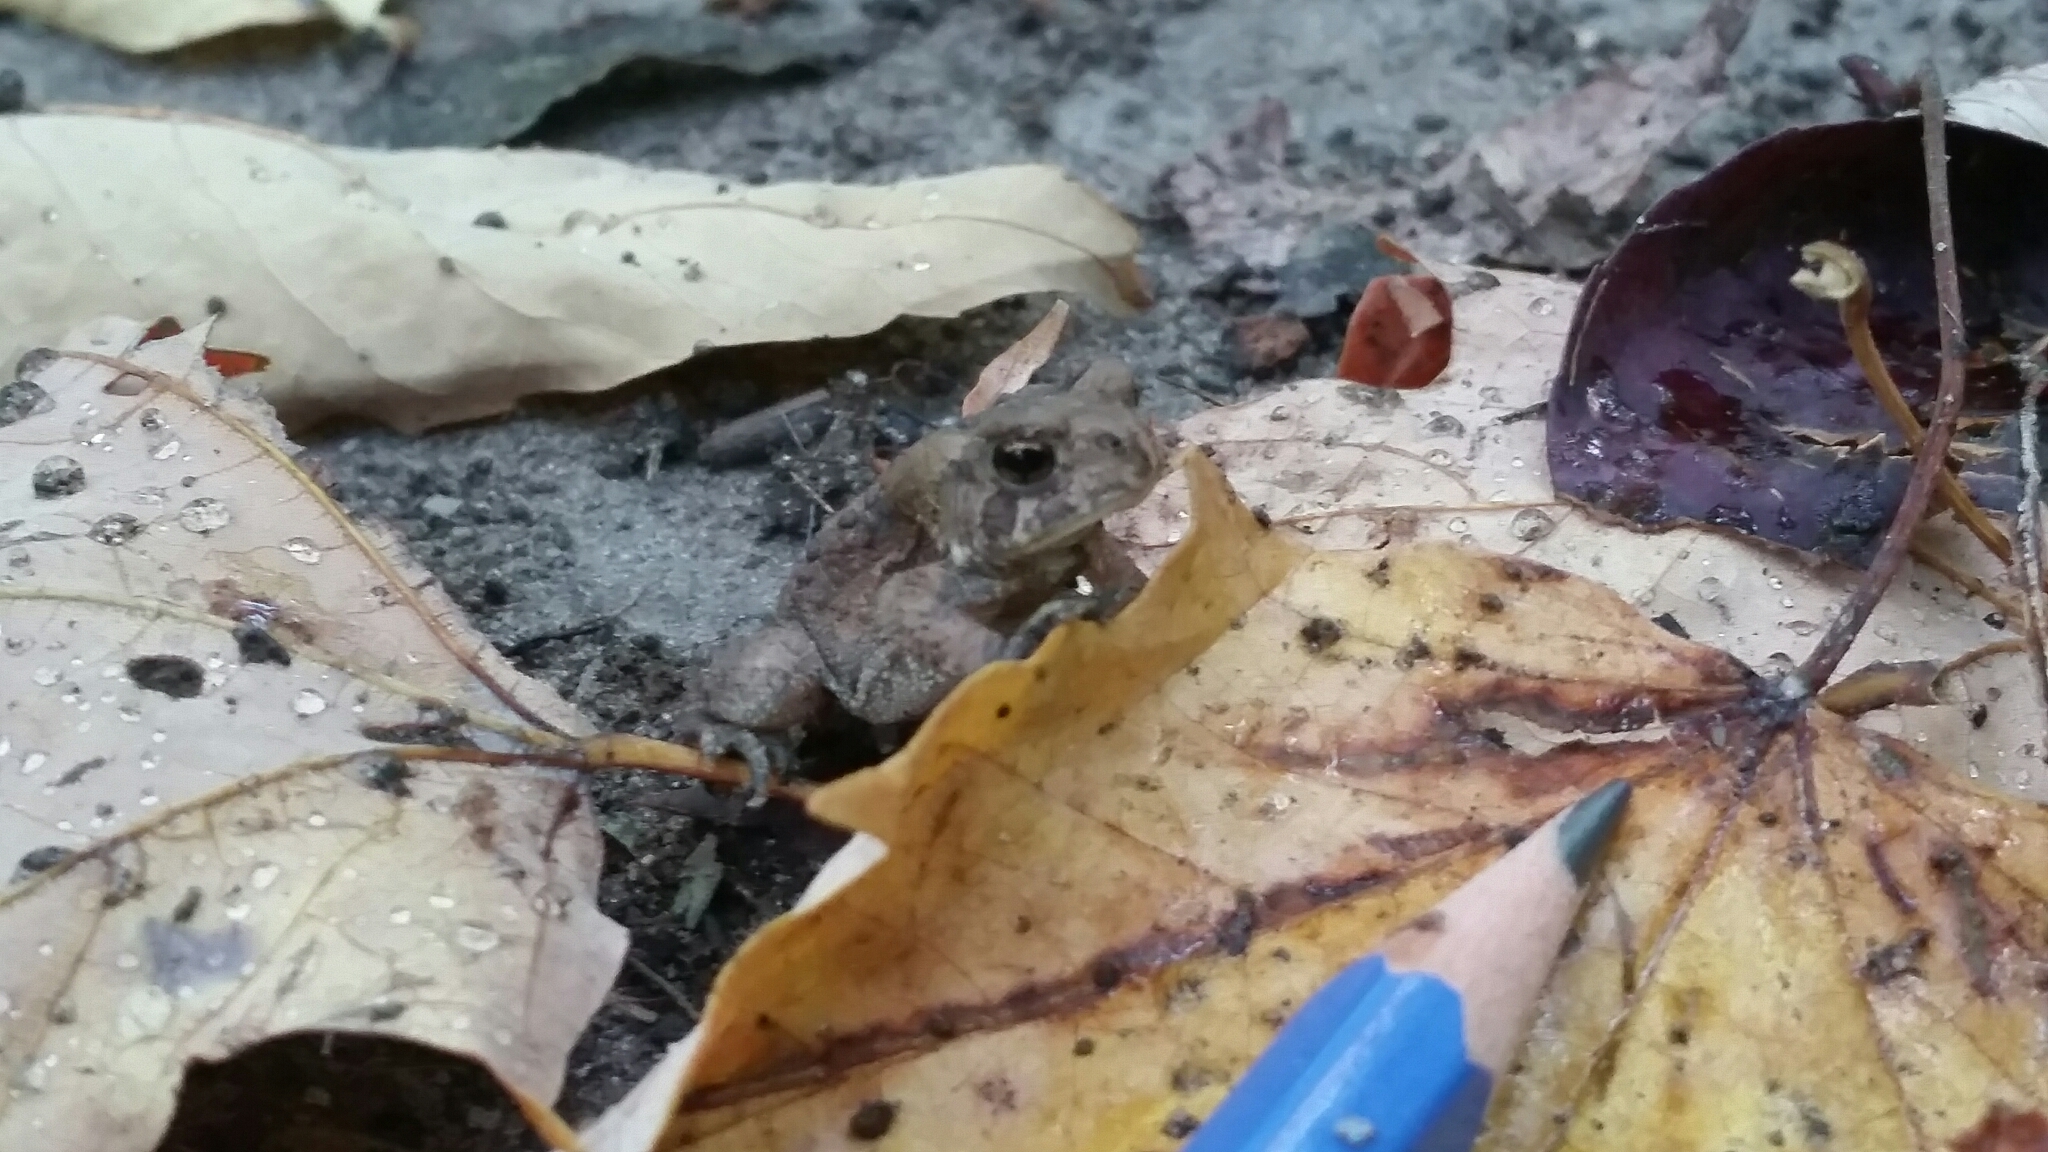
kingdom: Animalia
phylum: Chordata
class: Amphibia
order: Anura
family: Bufonidae
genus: Anaxyrus
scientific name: Anaxyrus americanus
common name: American toad
